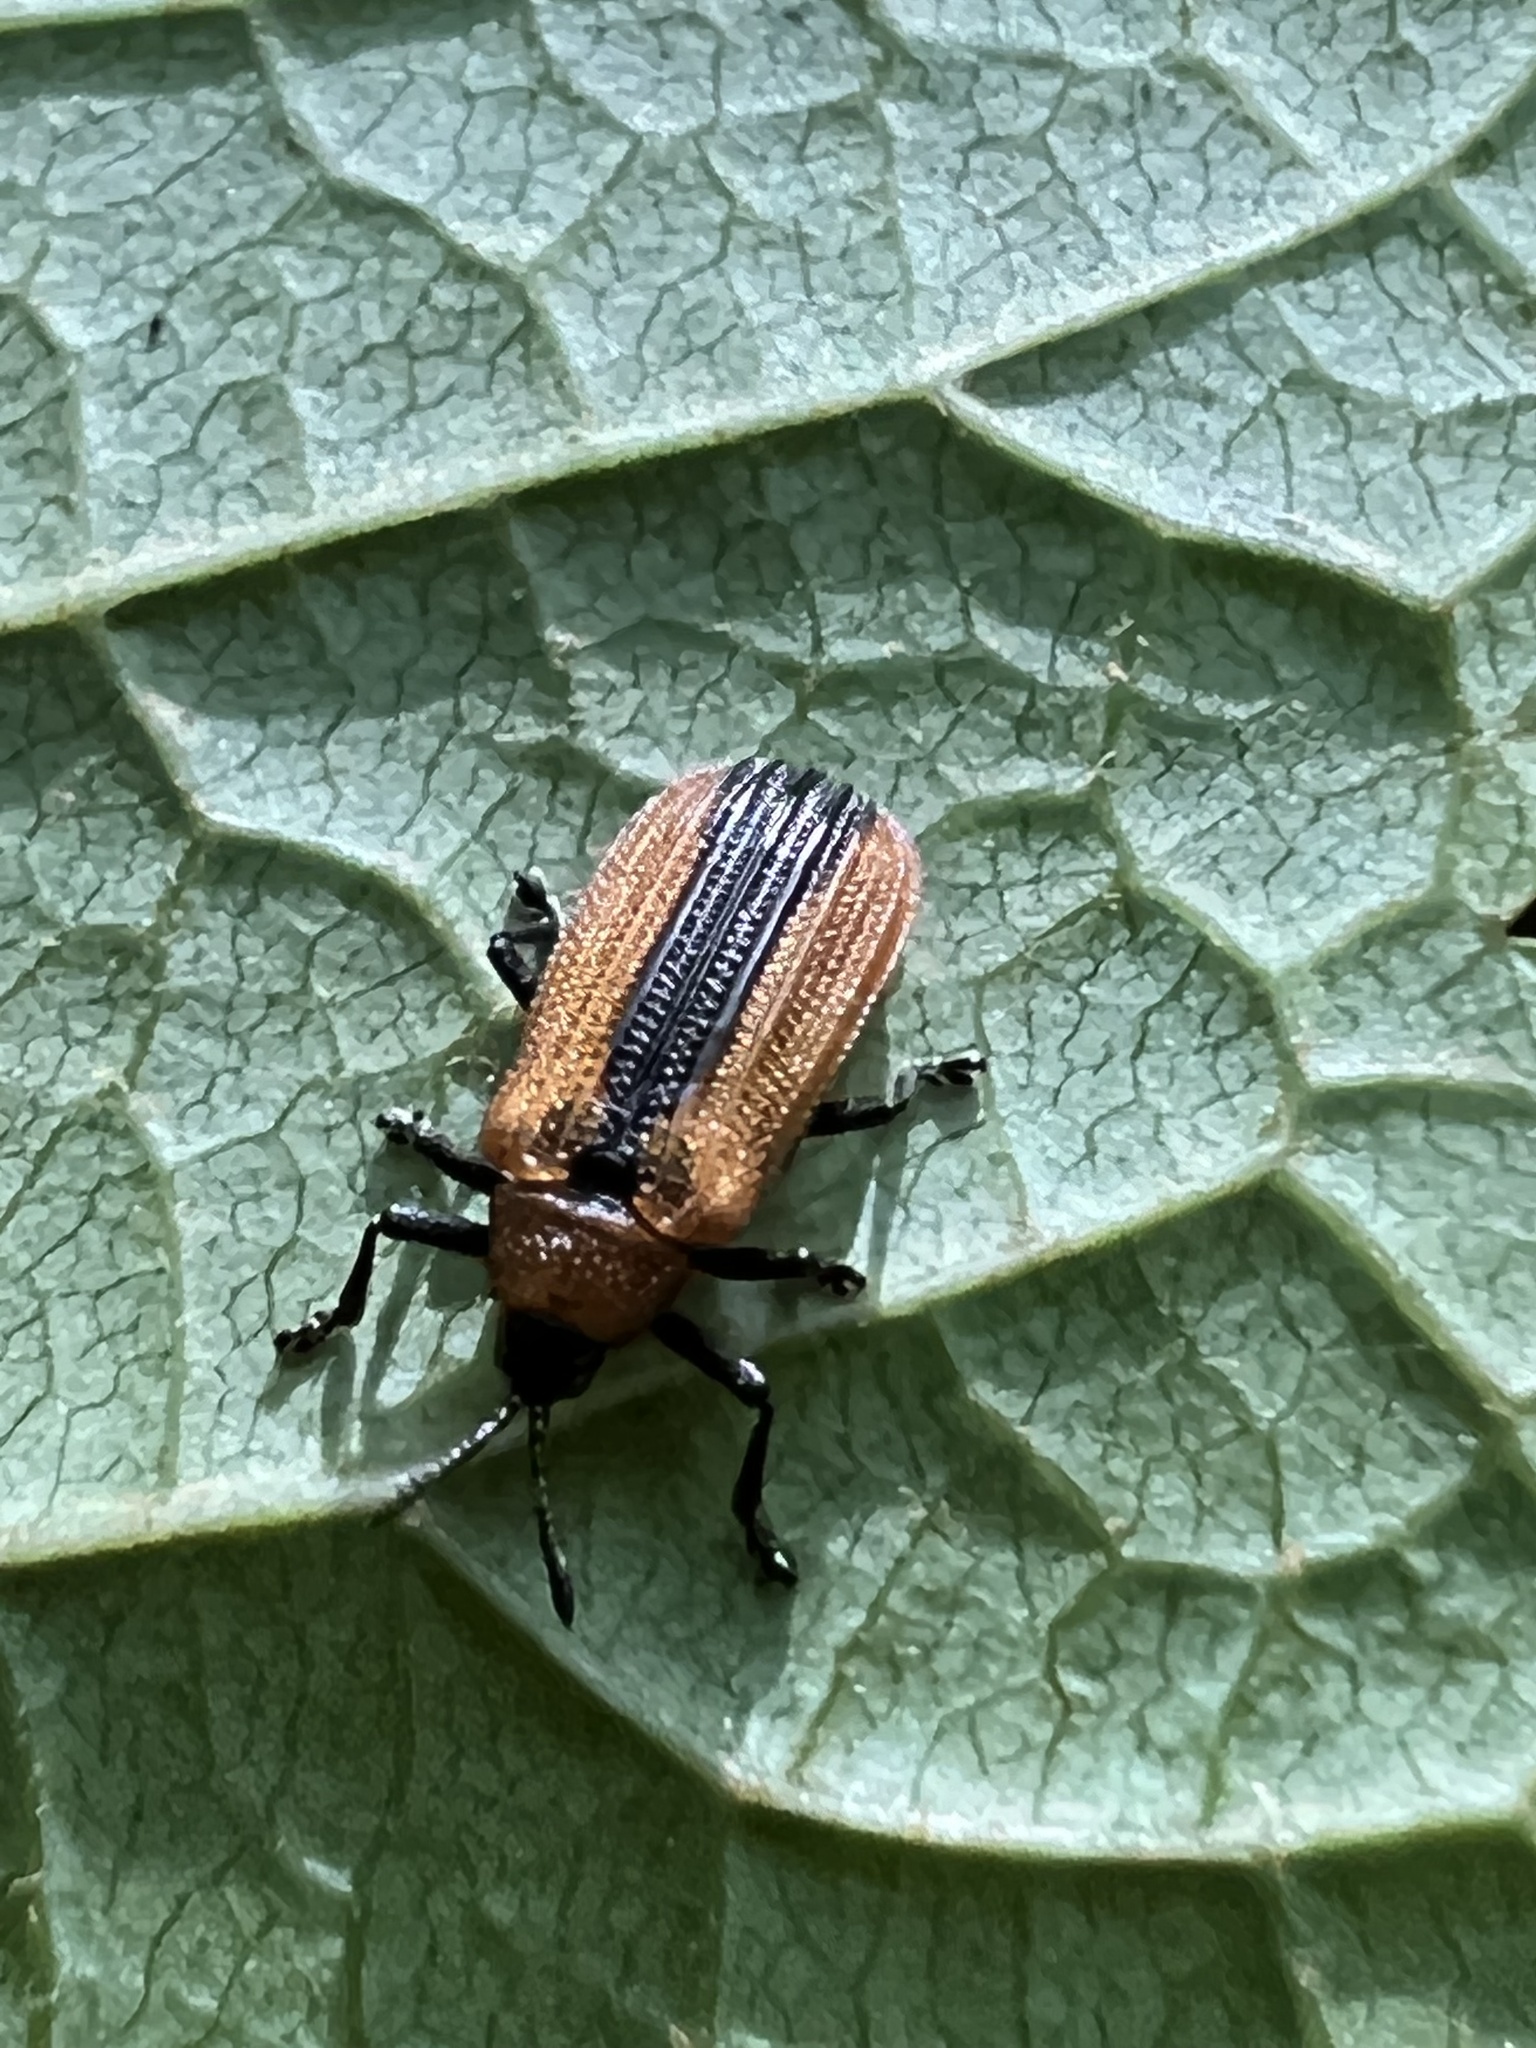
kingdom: Animalia
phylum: Arthropoda
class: Insecta
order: Coleoptera
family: Chrysomelidae
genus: Odontota
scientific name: Odontota dorsalis
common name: Locust leaf-miner beetle
